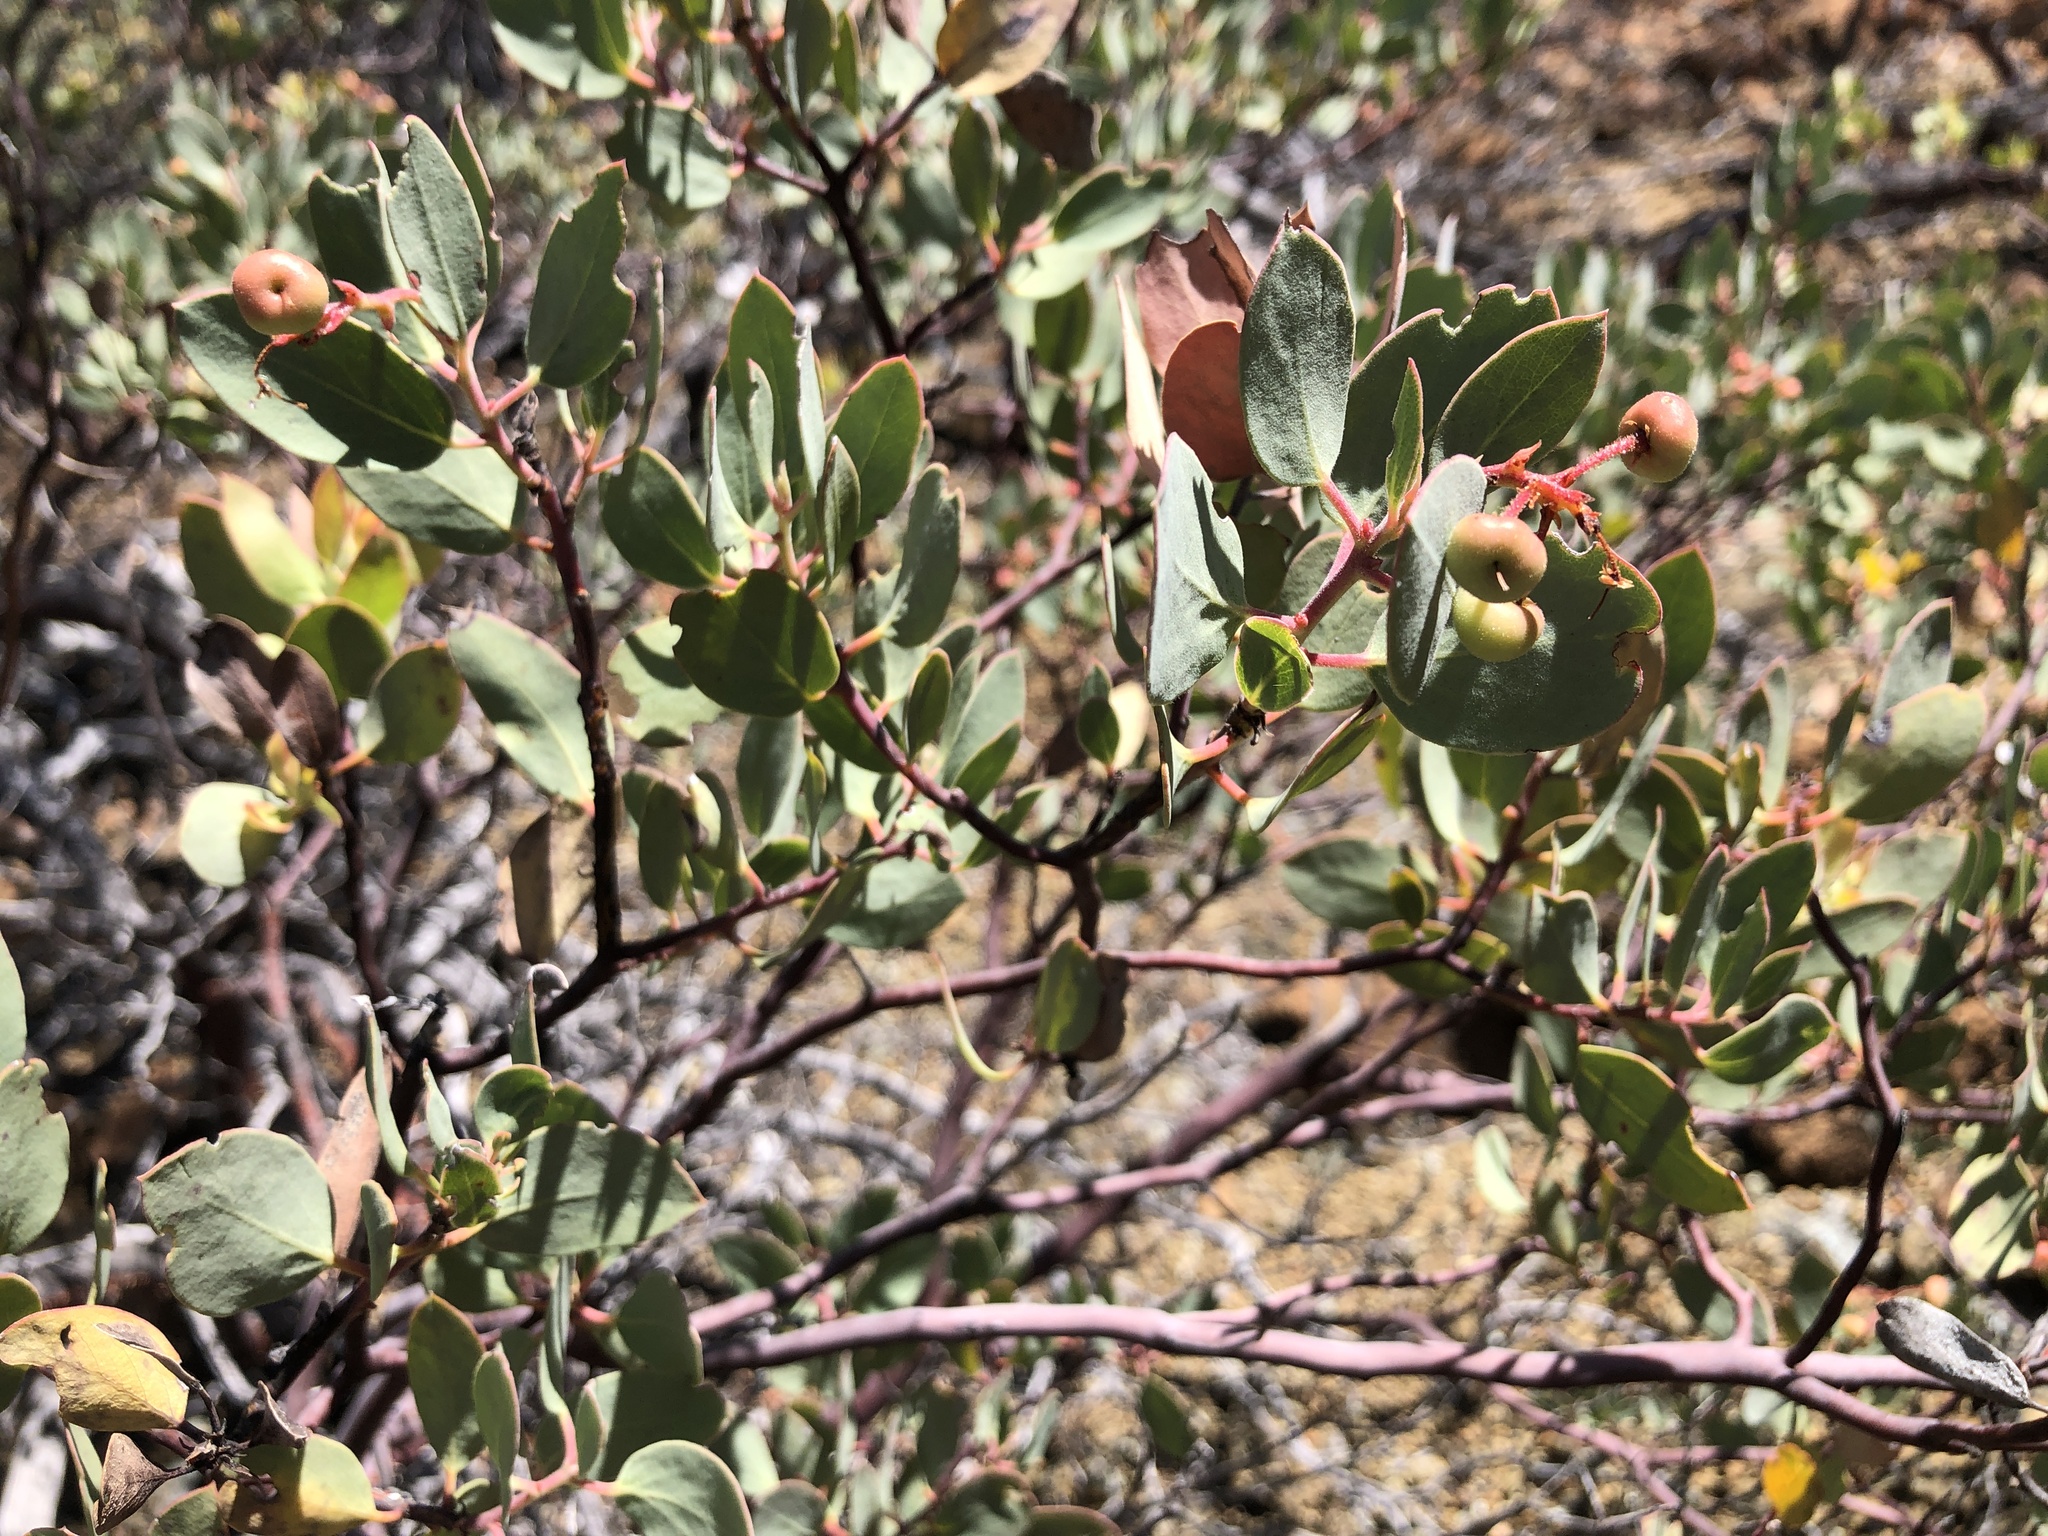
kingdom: Plantae
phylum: Tracheophyta
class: Magnoliopsida
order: Ericales
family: Ericaceae
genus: Arctostaphylos
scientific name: Arctostaphylos viscida
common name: White-leaf manzanita
